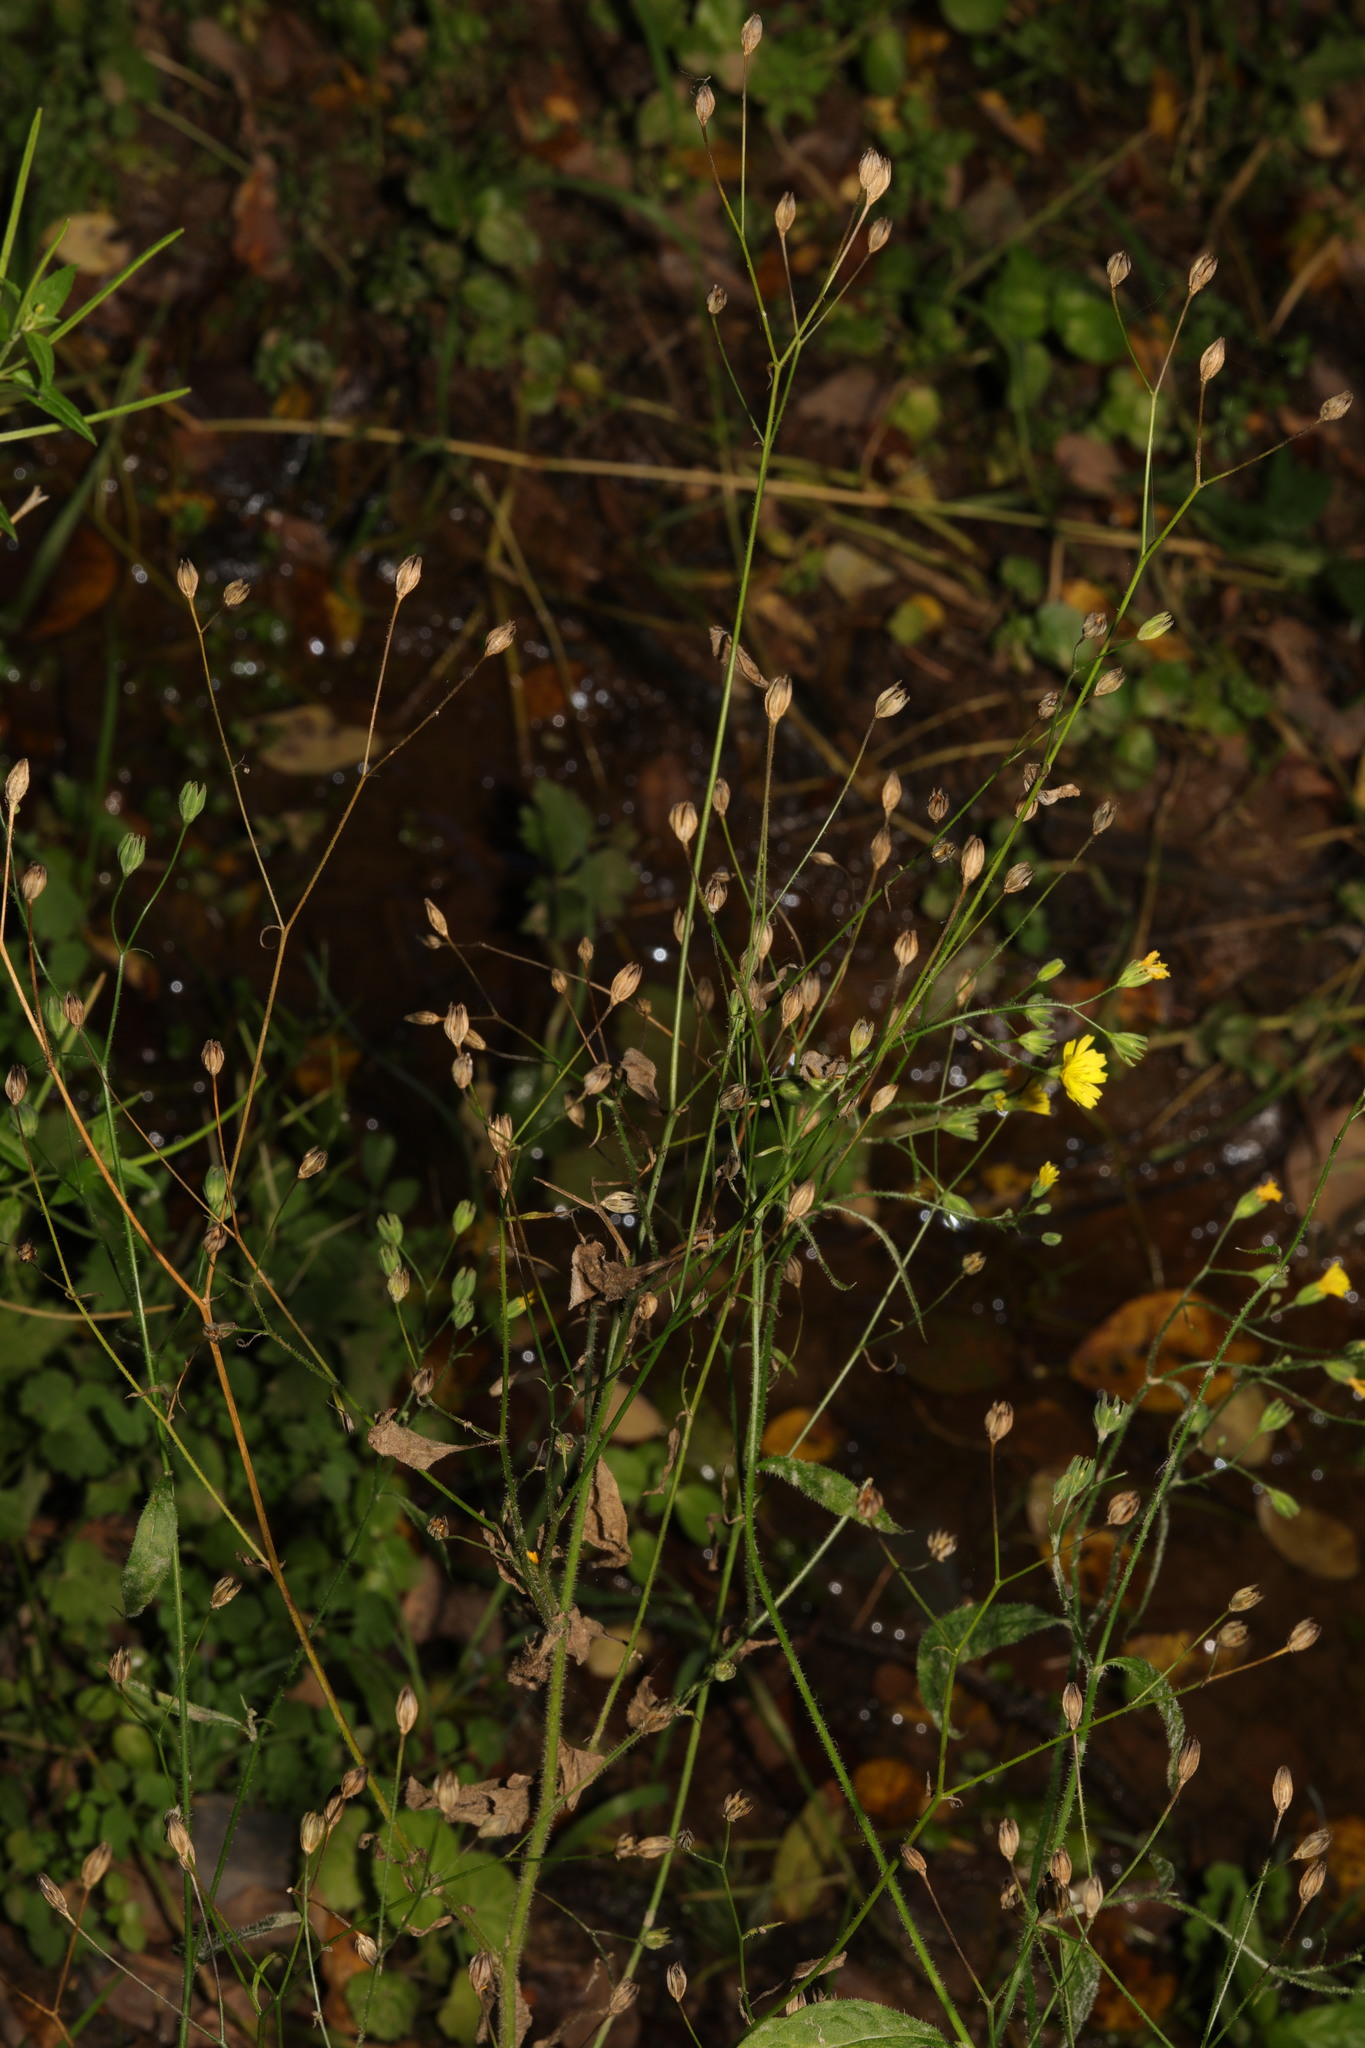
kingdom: Plantae
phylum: Tracheophyta
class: Magnoliopsida
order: Asterales
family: Asteraceae
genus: Lapsana
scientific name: Lapsana communis
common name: Nipplewort
